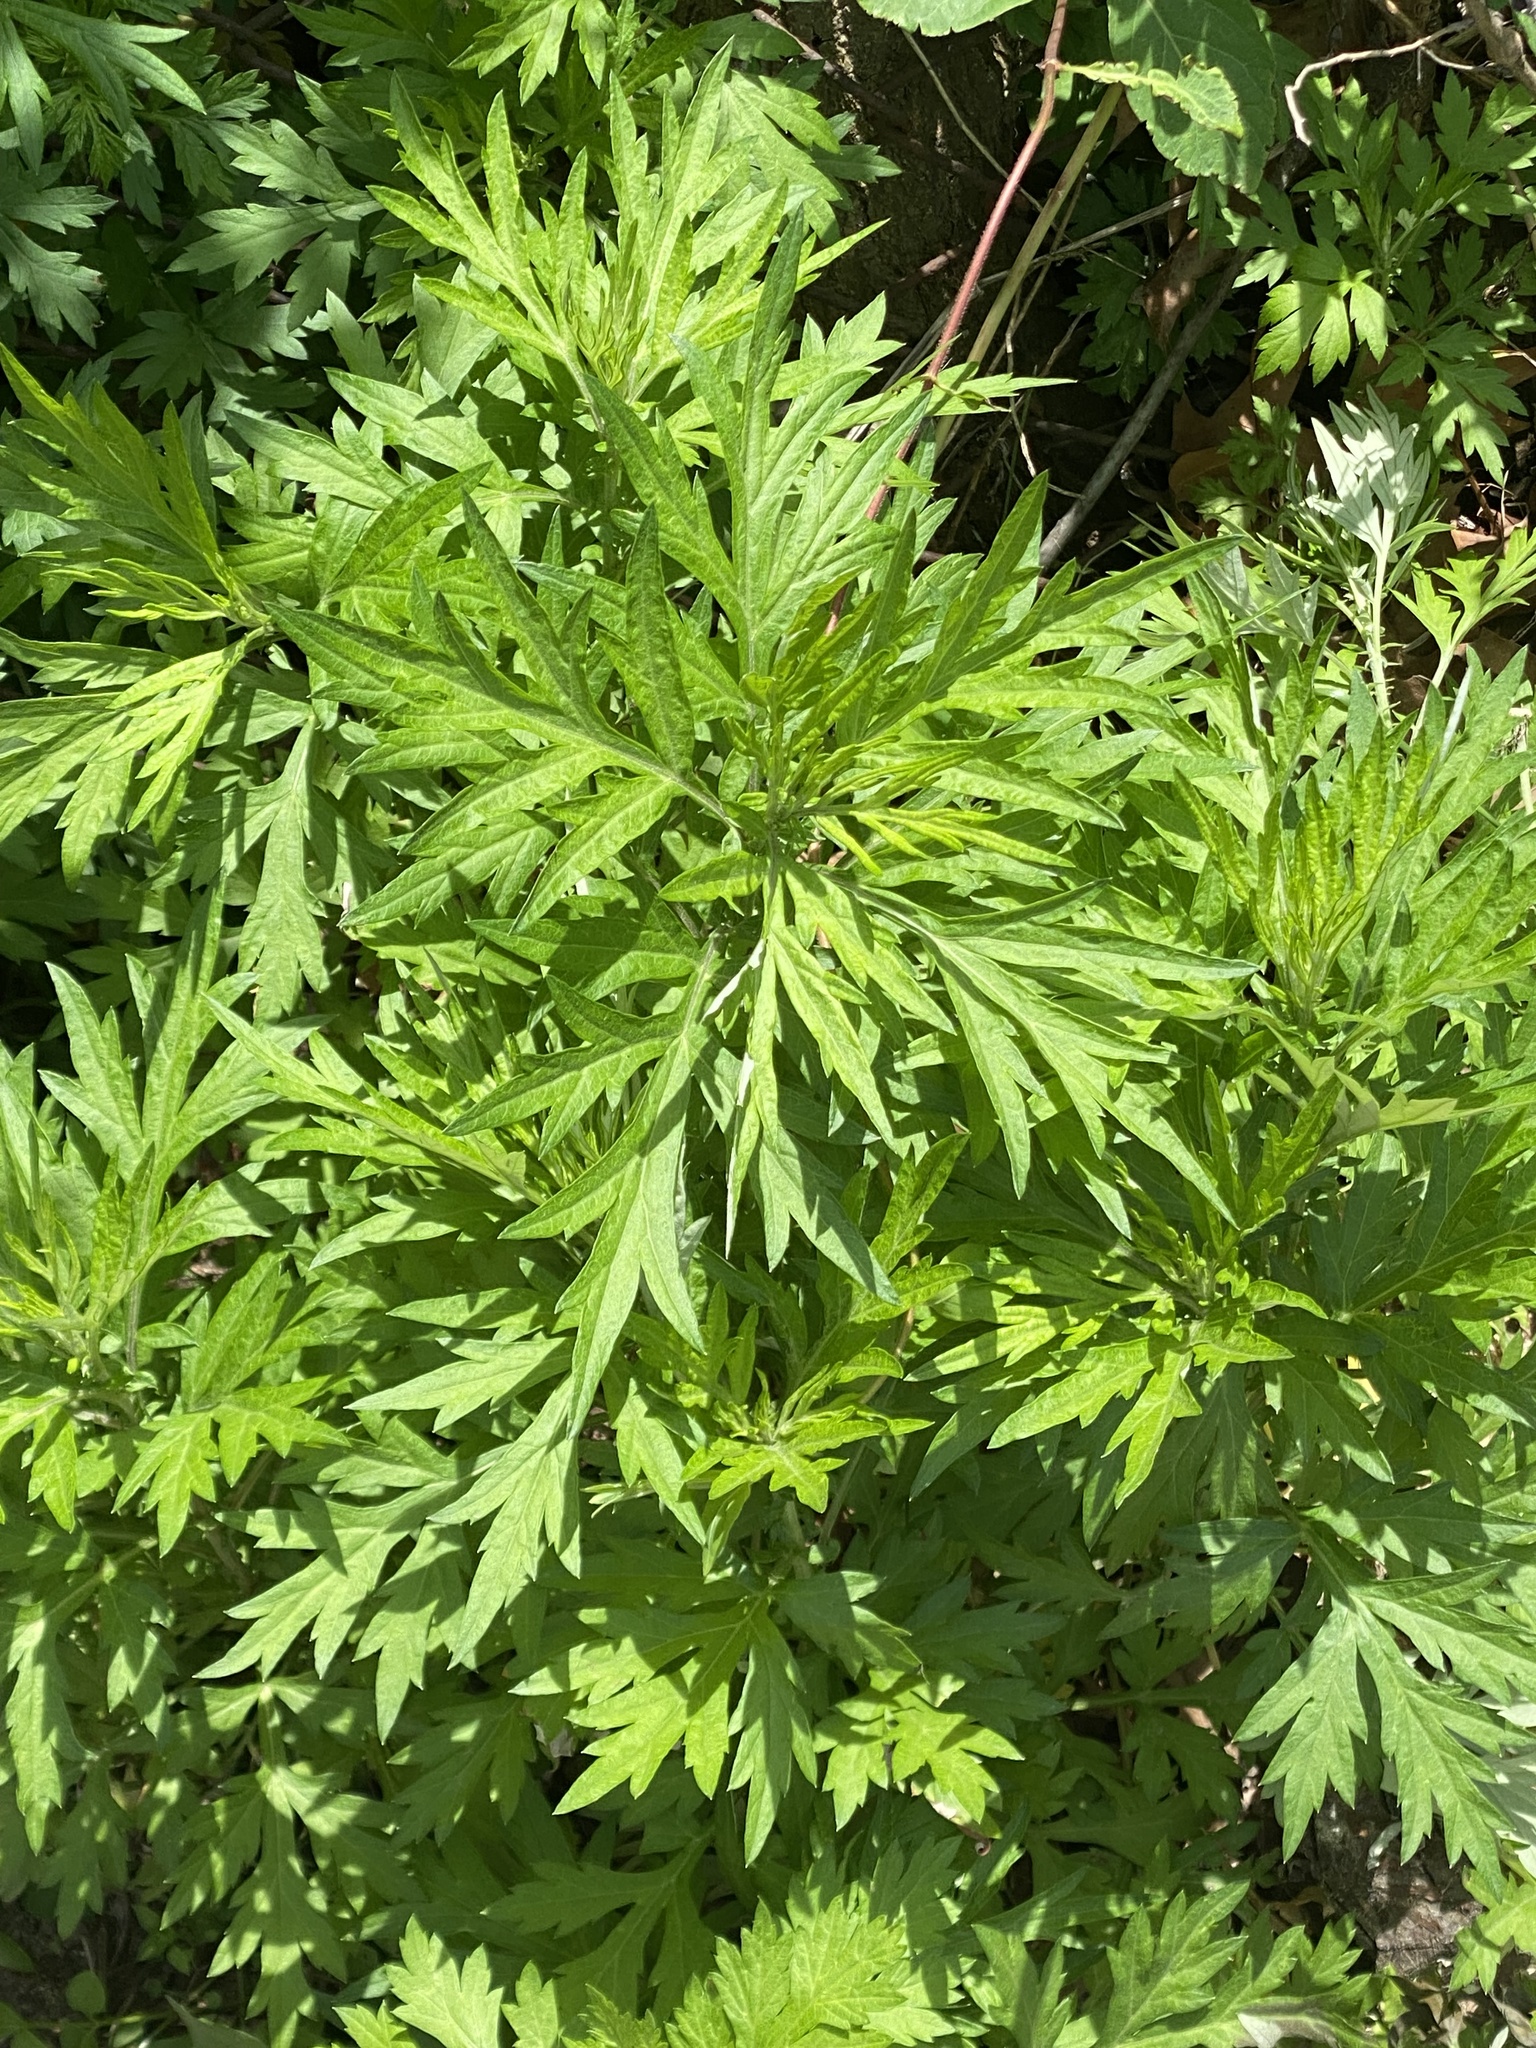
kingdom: Plantae
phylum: Tracheophyta
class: Magnoliopsida
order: Asterales
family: Asteraceae
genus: Artemisia
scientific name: Artemisia vulgaris
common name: Mugwort
